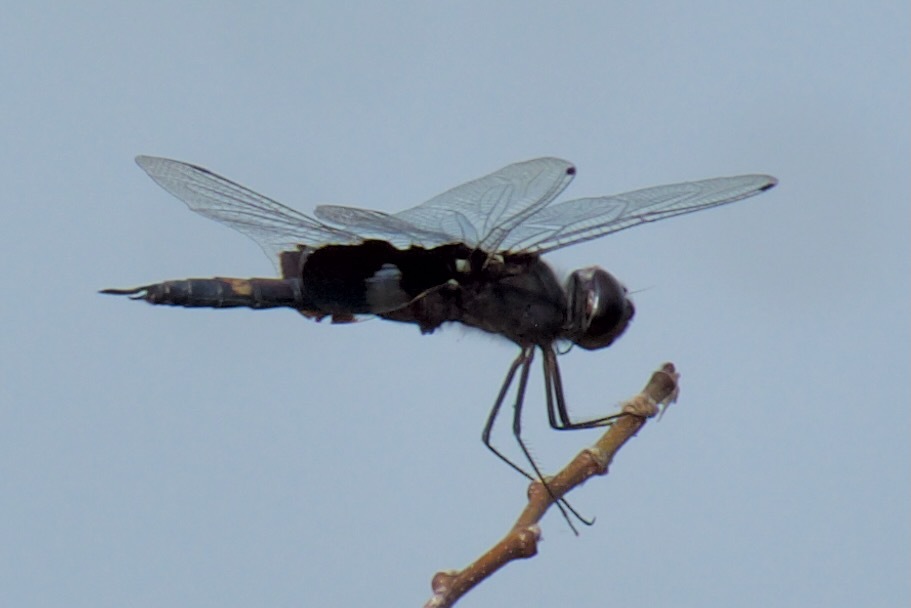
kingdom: Animalia
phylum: Arthropoda
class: Insecta
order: Odonata
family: Libellulidae
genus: Tramea
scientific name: Tramea lacerata
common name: Black saddlebags
